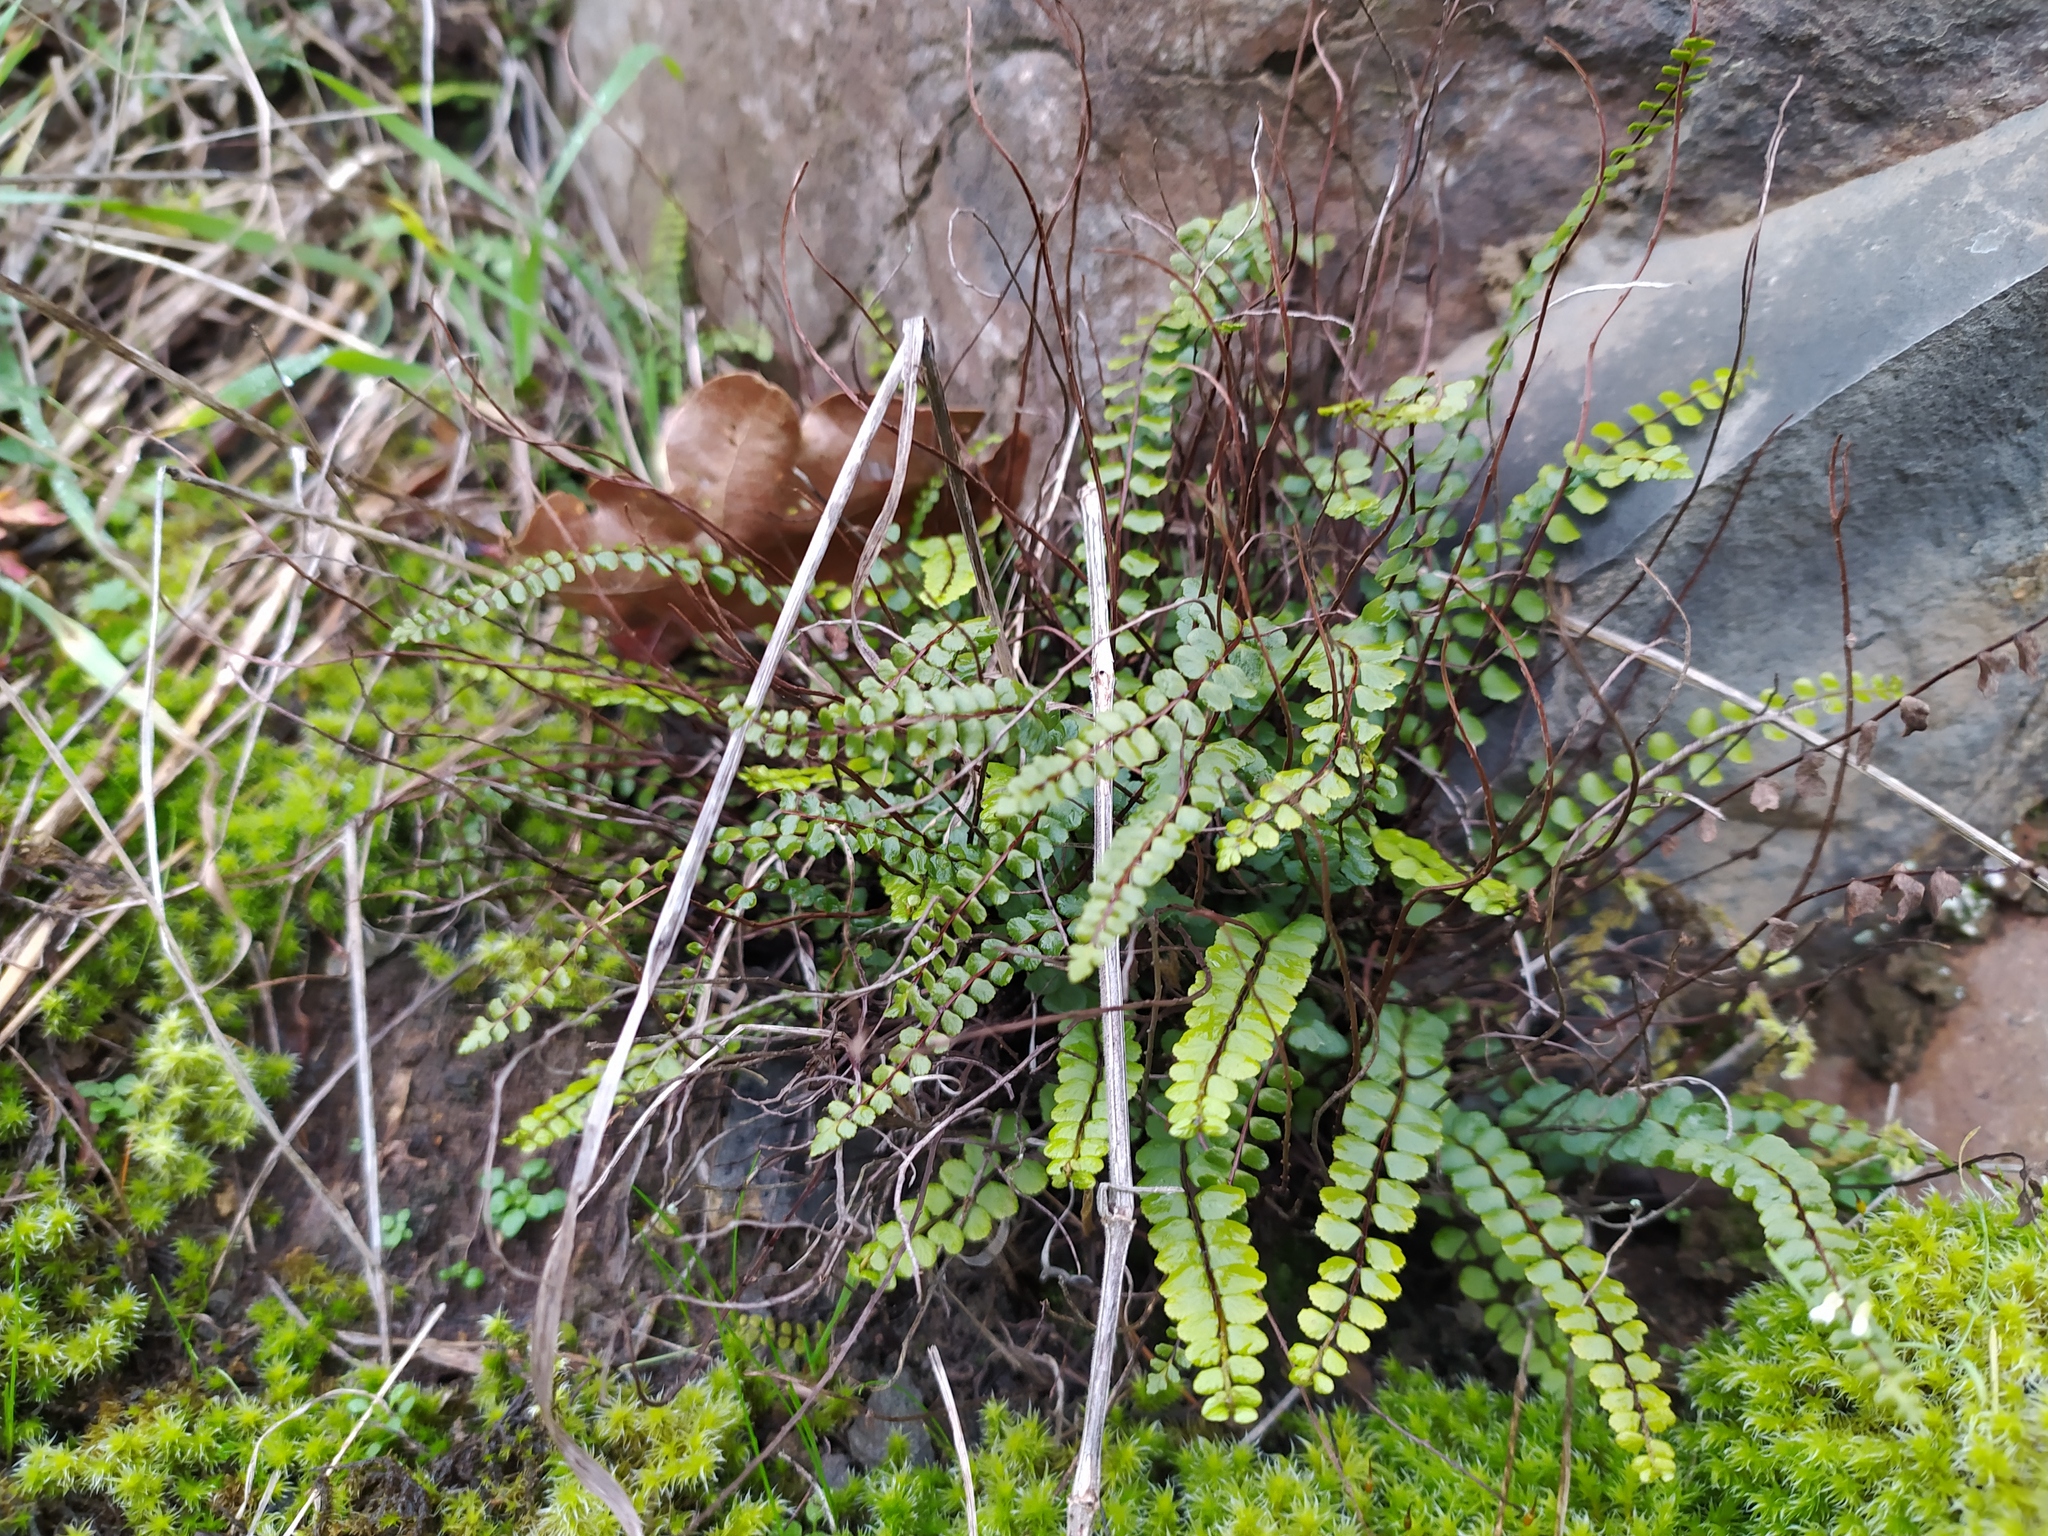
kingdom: Plantae
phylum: Tracheophyta
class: Polypodiopsida
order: Polypodiales
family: Aspleniaceae
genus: Asplenium
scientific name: Asplenium trichomanes
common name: Maidenhair spleenwort
